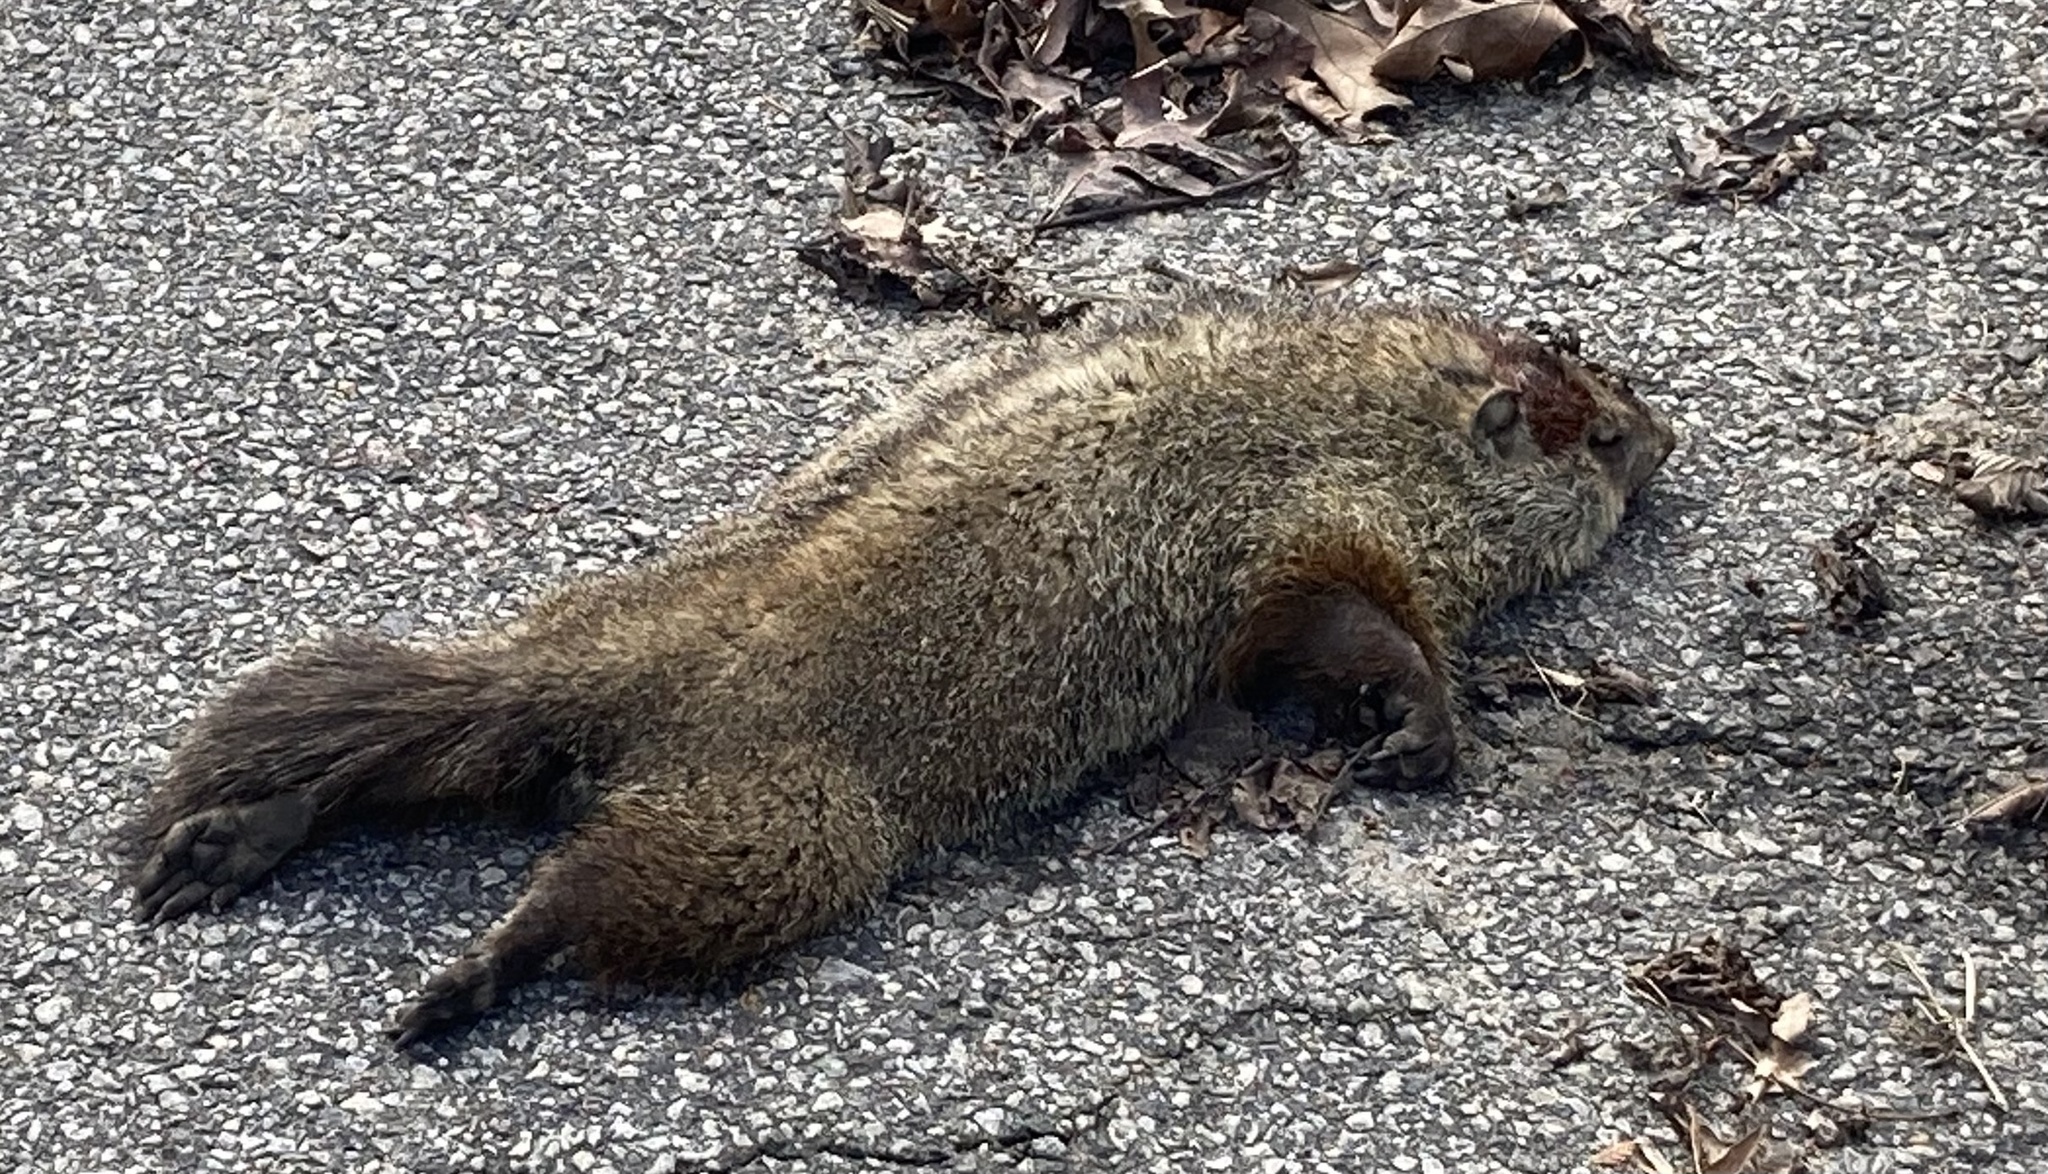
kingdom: Animalia
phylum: Chordata
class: Mammalia
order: Rodentia
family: Sciuridae
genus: Marmota
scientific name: Marmota monax
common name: Groundhog
